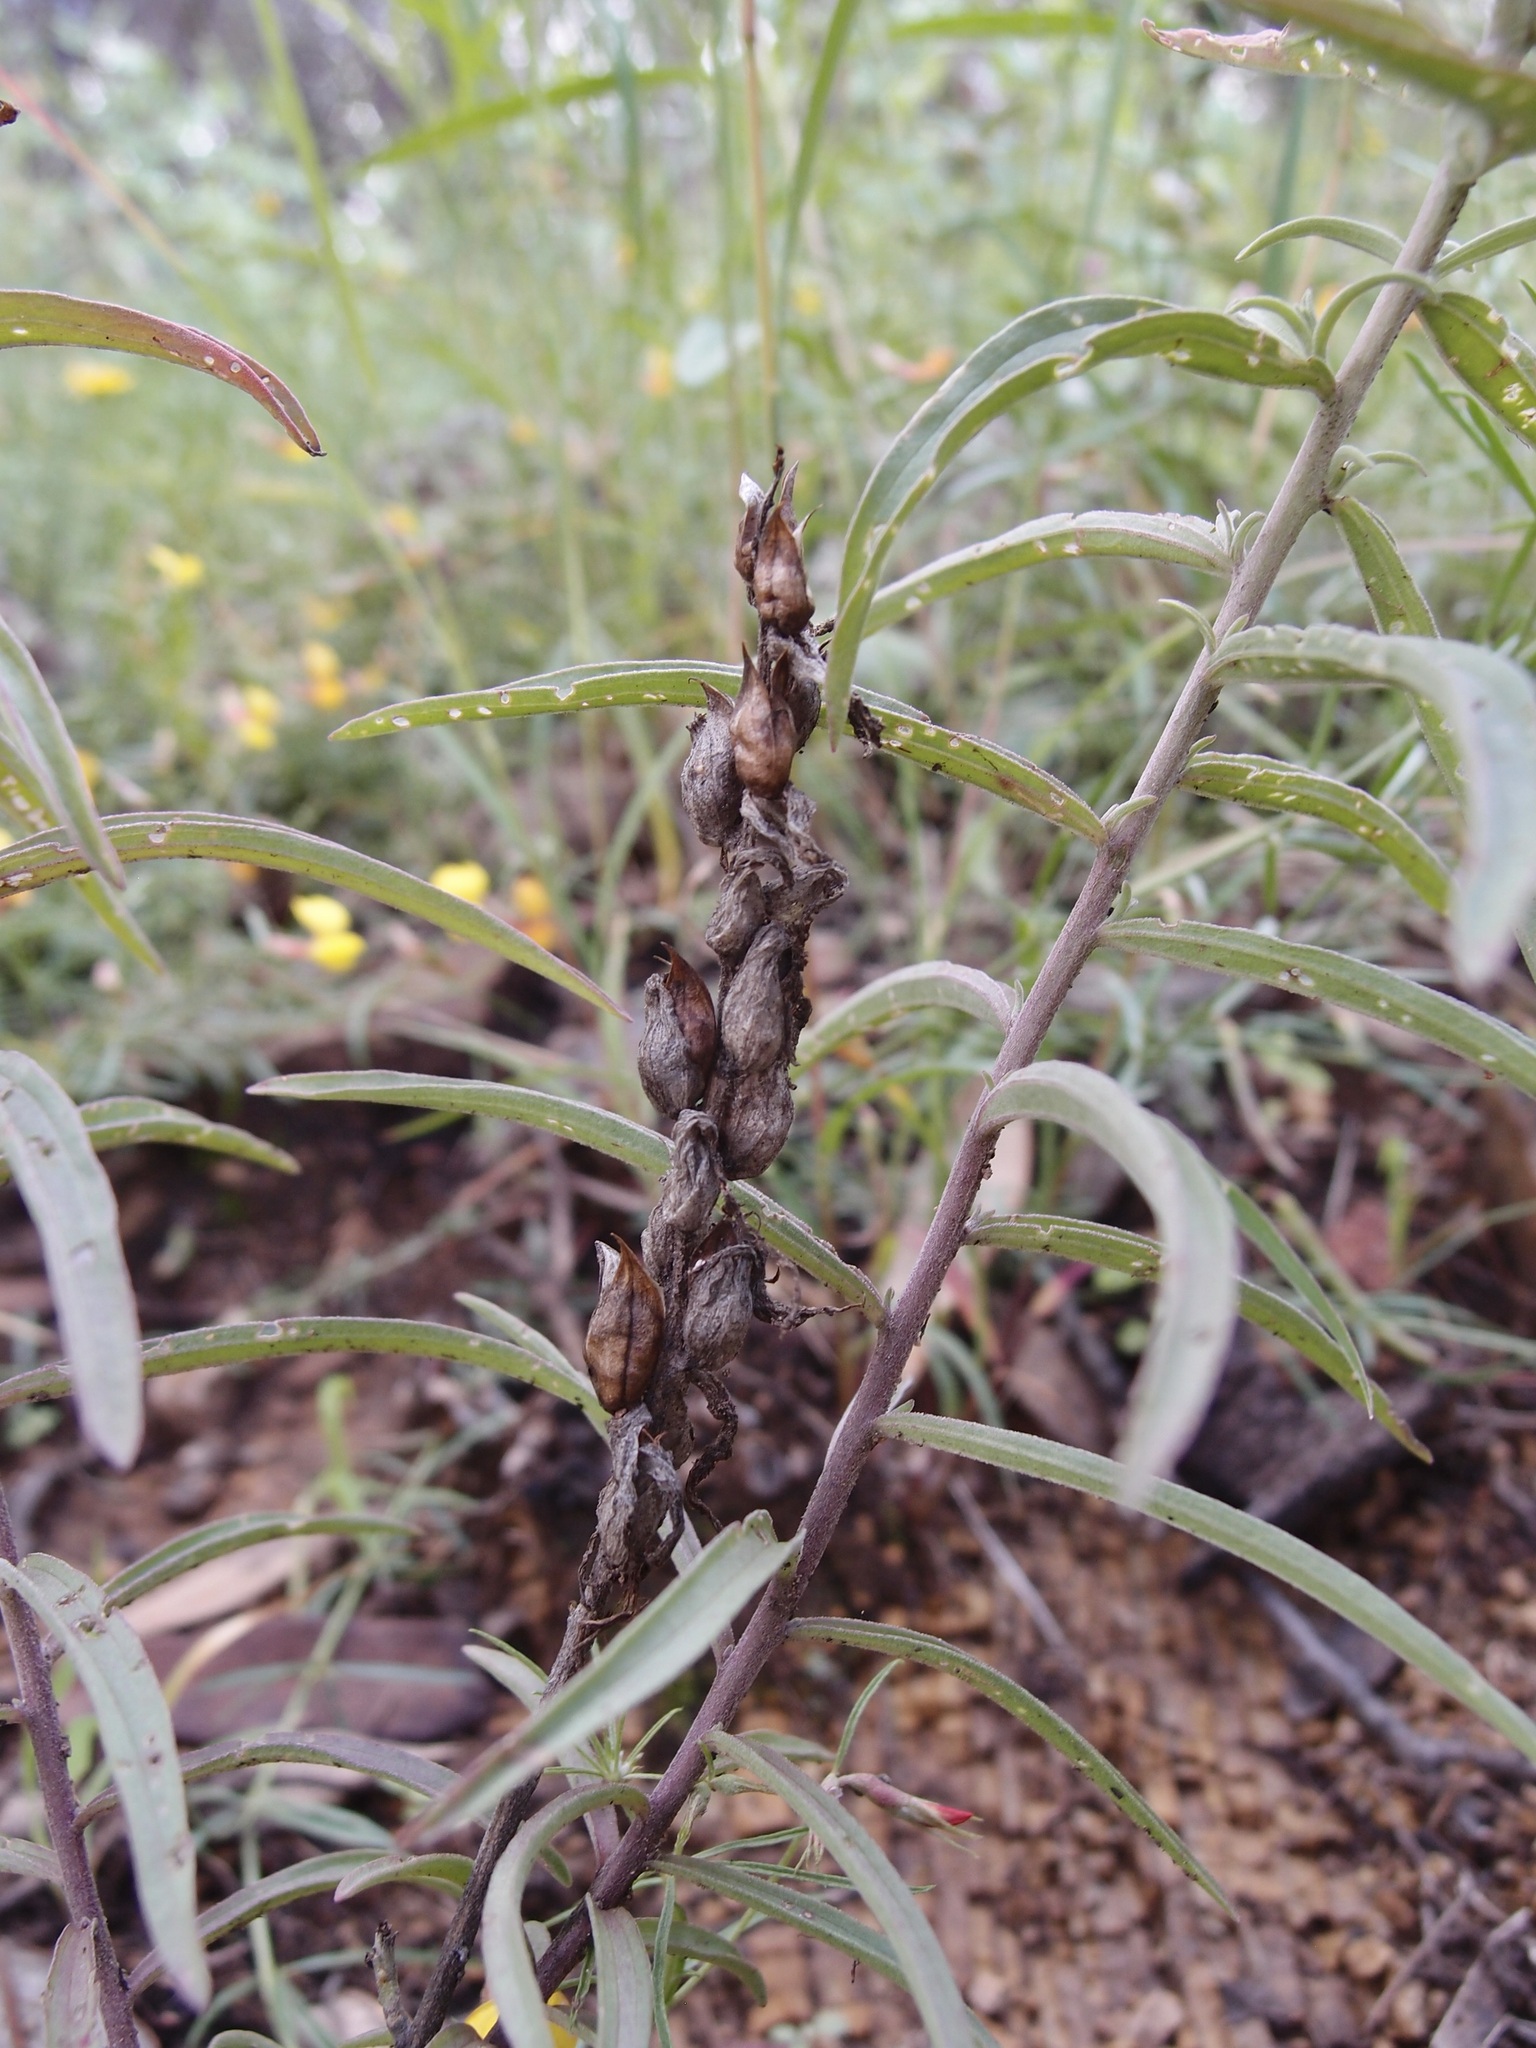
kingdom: Plantae
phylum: Tracheophyta
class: Magnoliopsida
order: Lamiales
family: Orobanchaceae
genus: Castilleja
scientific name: Castilleja integra
